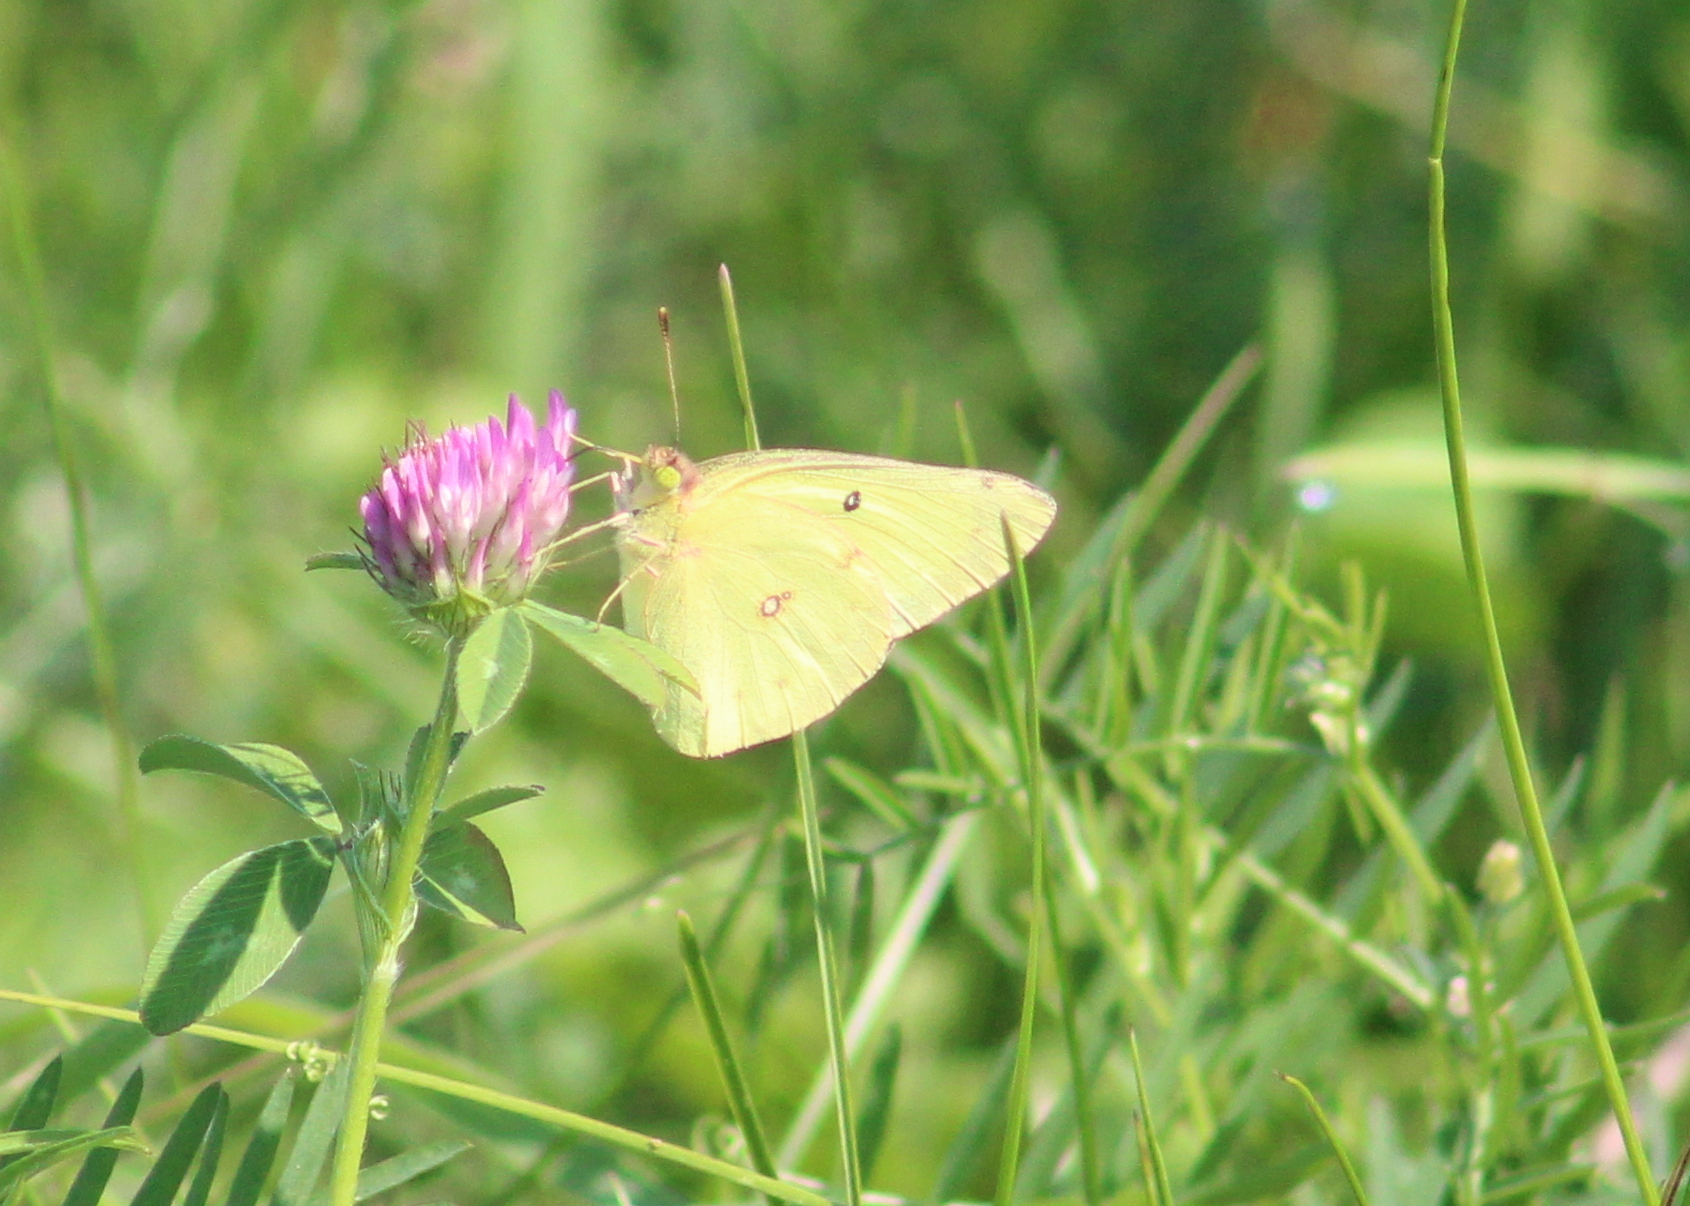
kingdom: Animalia
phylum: Arthropoda
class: Insecta
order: Lepidoptera
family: Pieridae
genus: Colias
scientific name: Colias philodice
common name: Clouded sulphur
